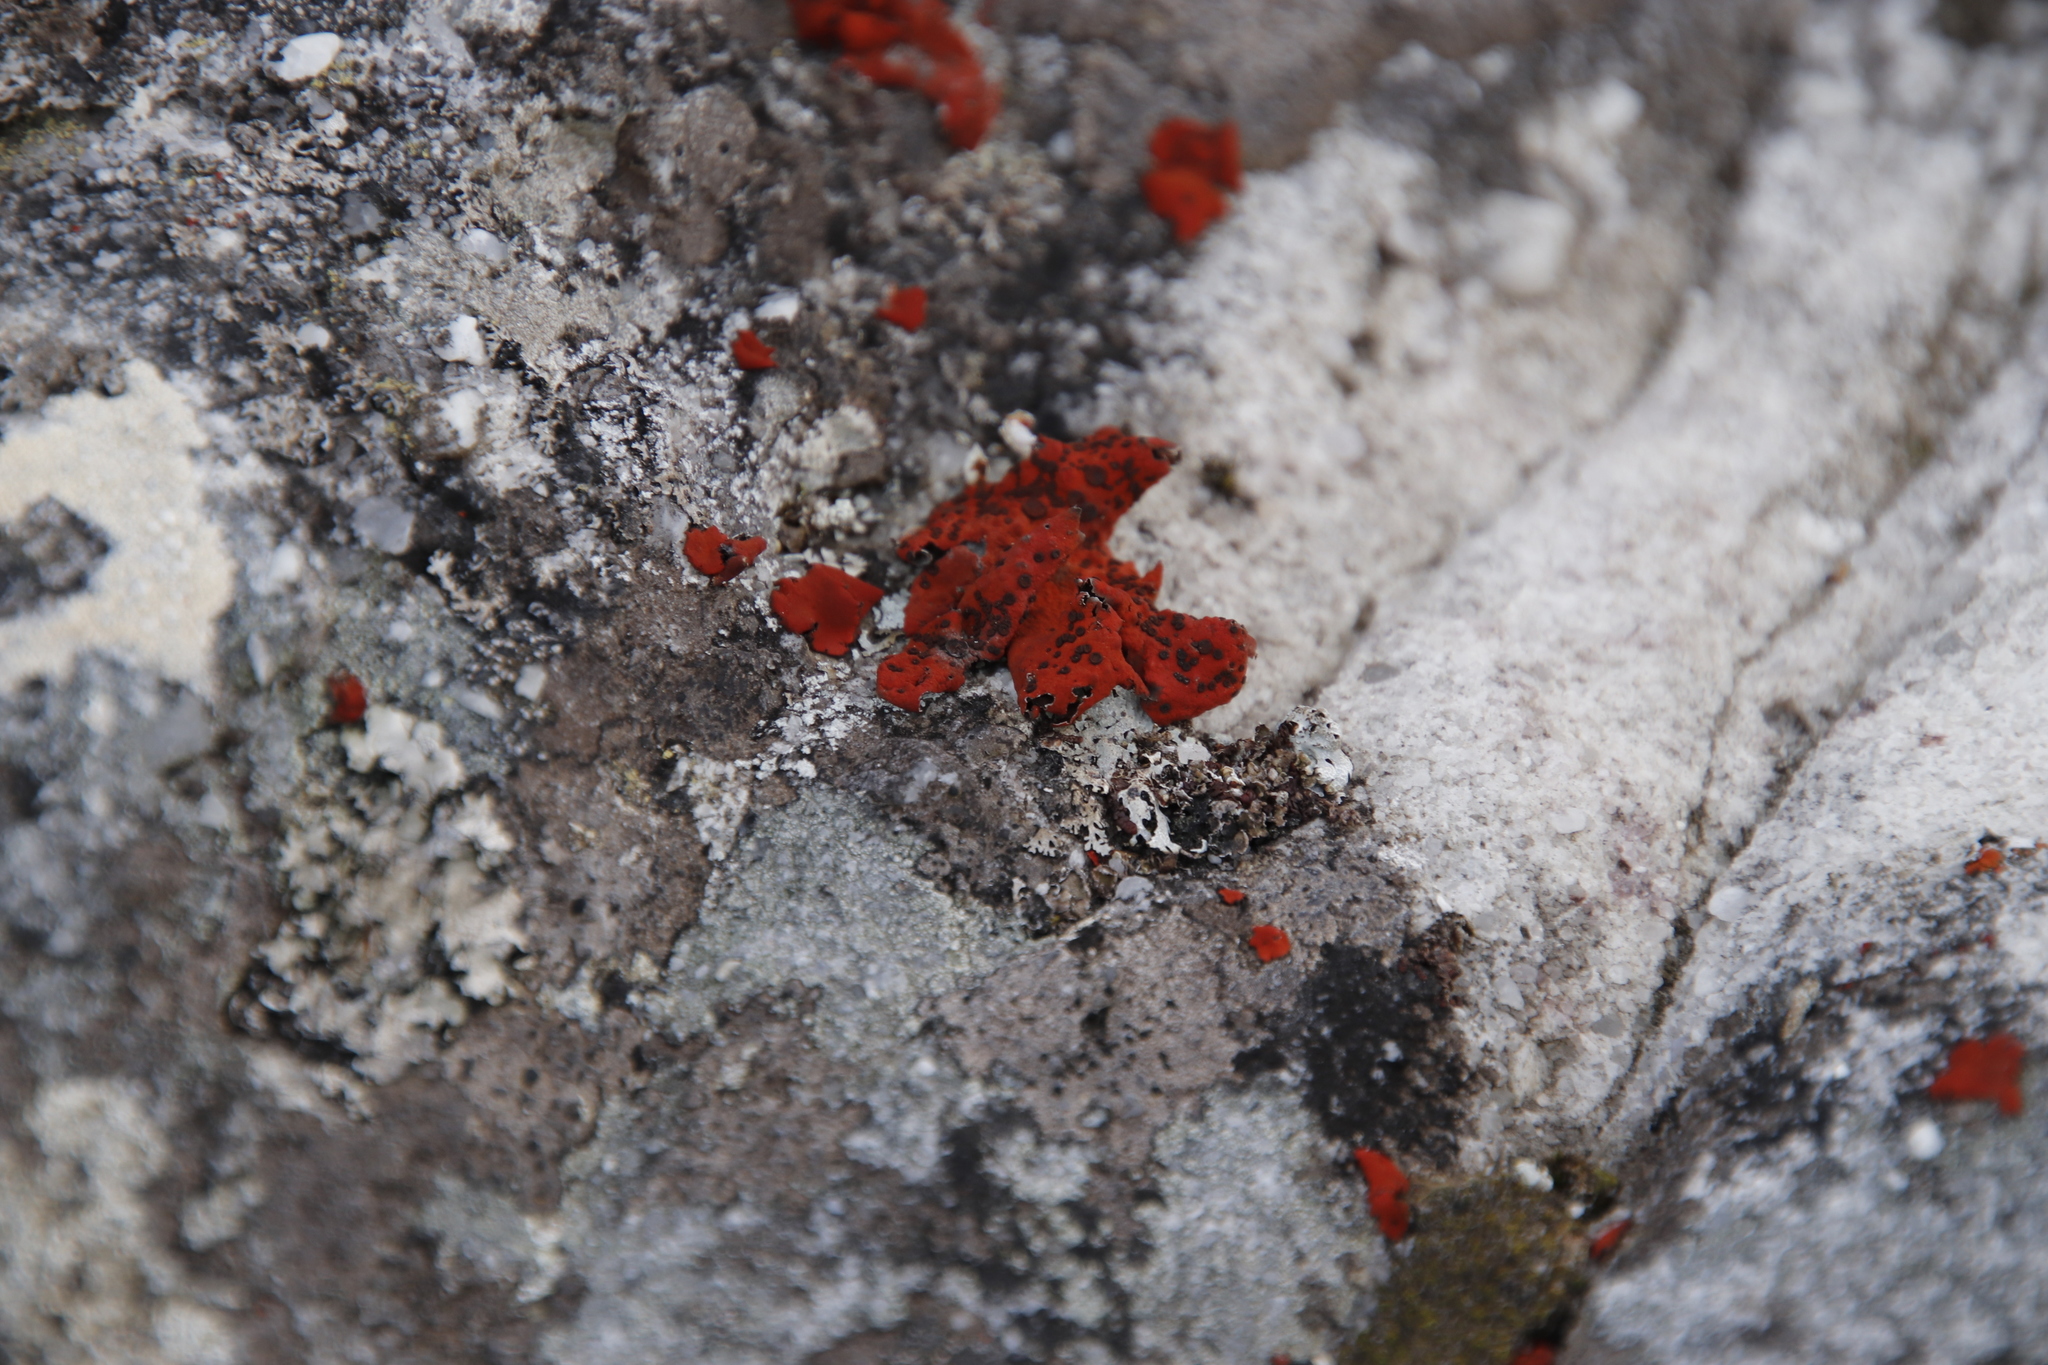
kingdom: Fungi
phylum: Ascomycota
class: Lecanoromycetes
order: Umbilicariales
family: Umbilicariaceae
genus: Lasallia
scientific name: Lasallia rubiginosa
